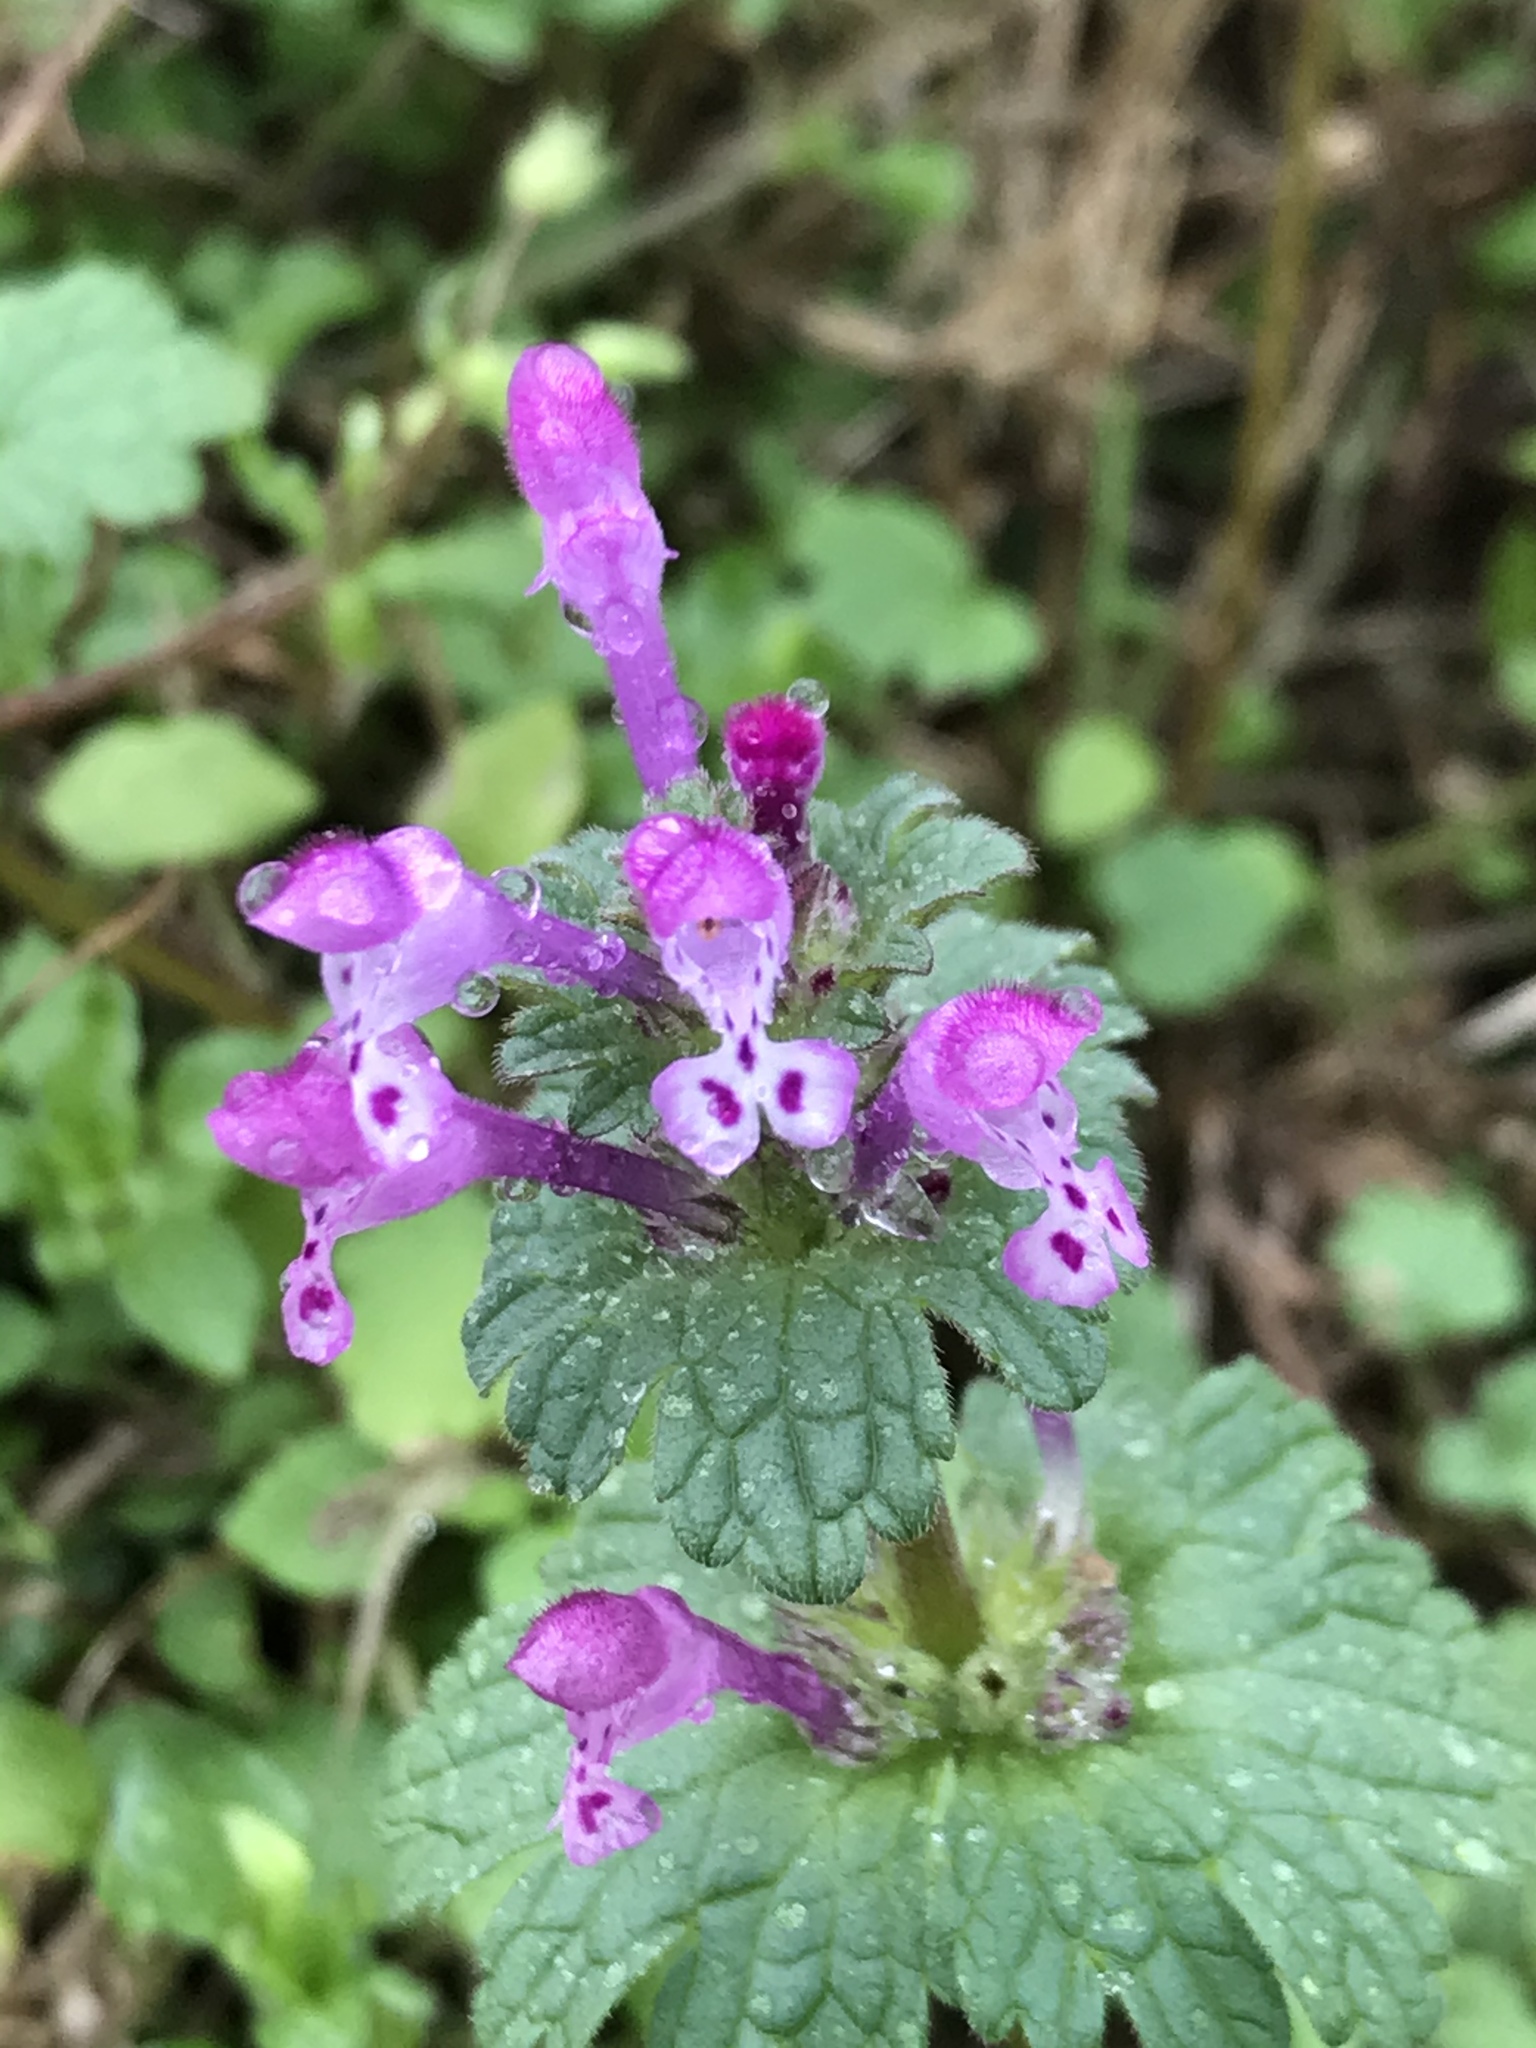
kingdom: Plantae
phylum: Tracheophyta
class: Magnoliopsida
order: Lamiales
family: Lamiaceae
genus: Lamium
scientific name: Lamium amplexicaule
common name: Henbit dead-nettle
